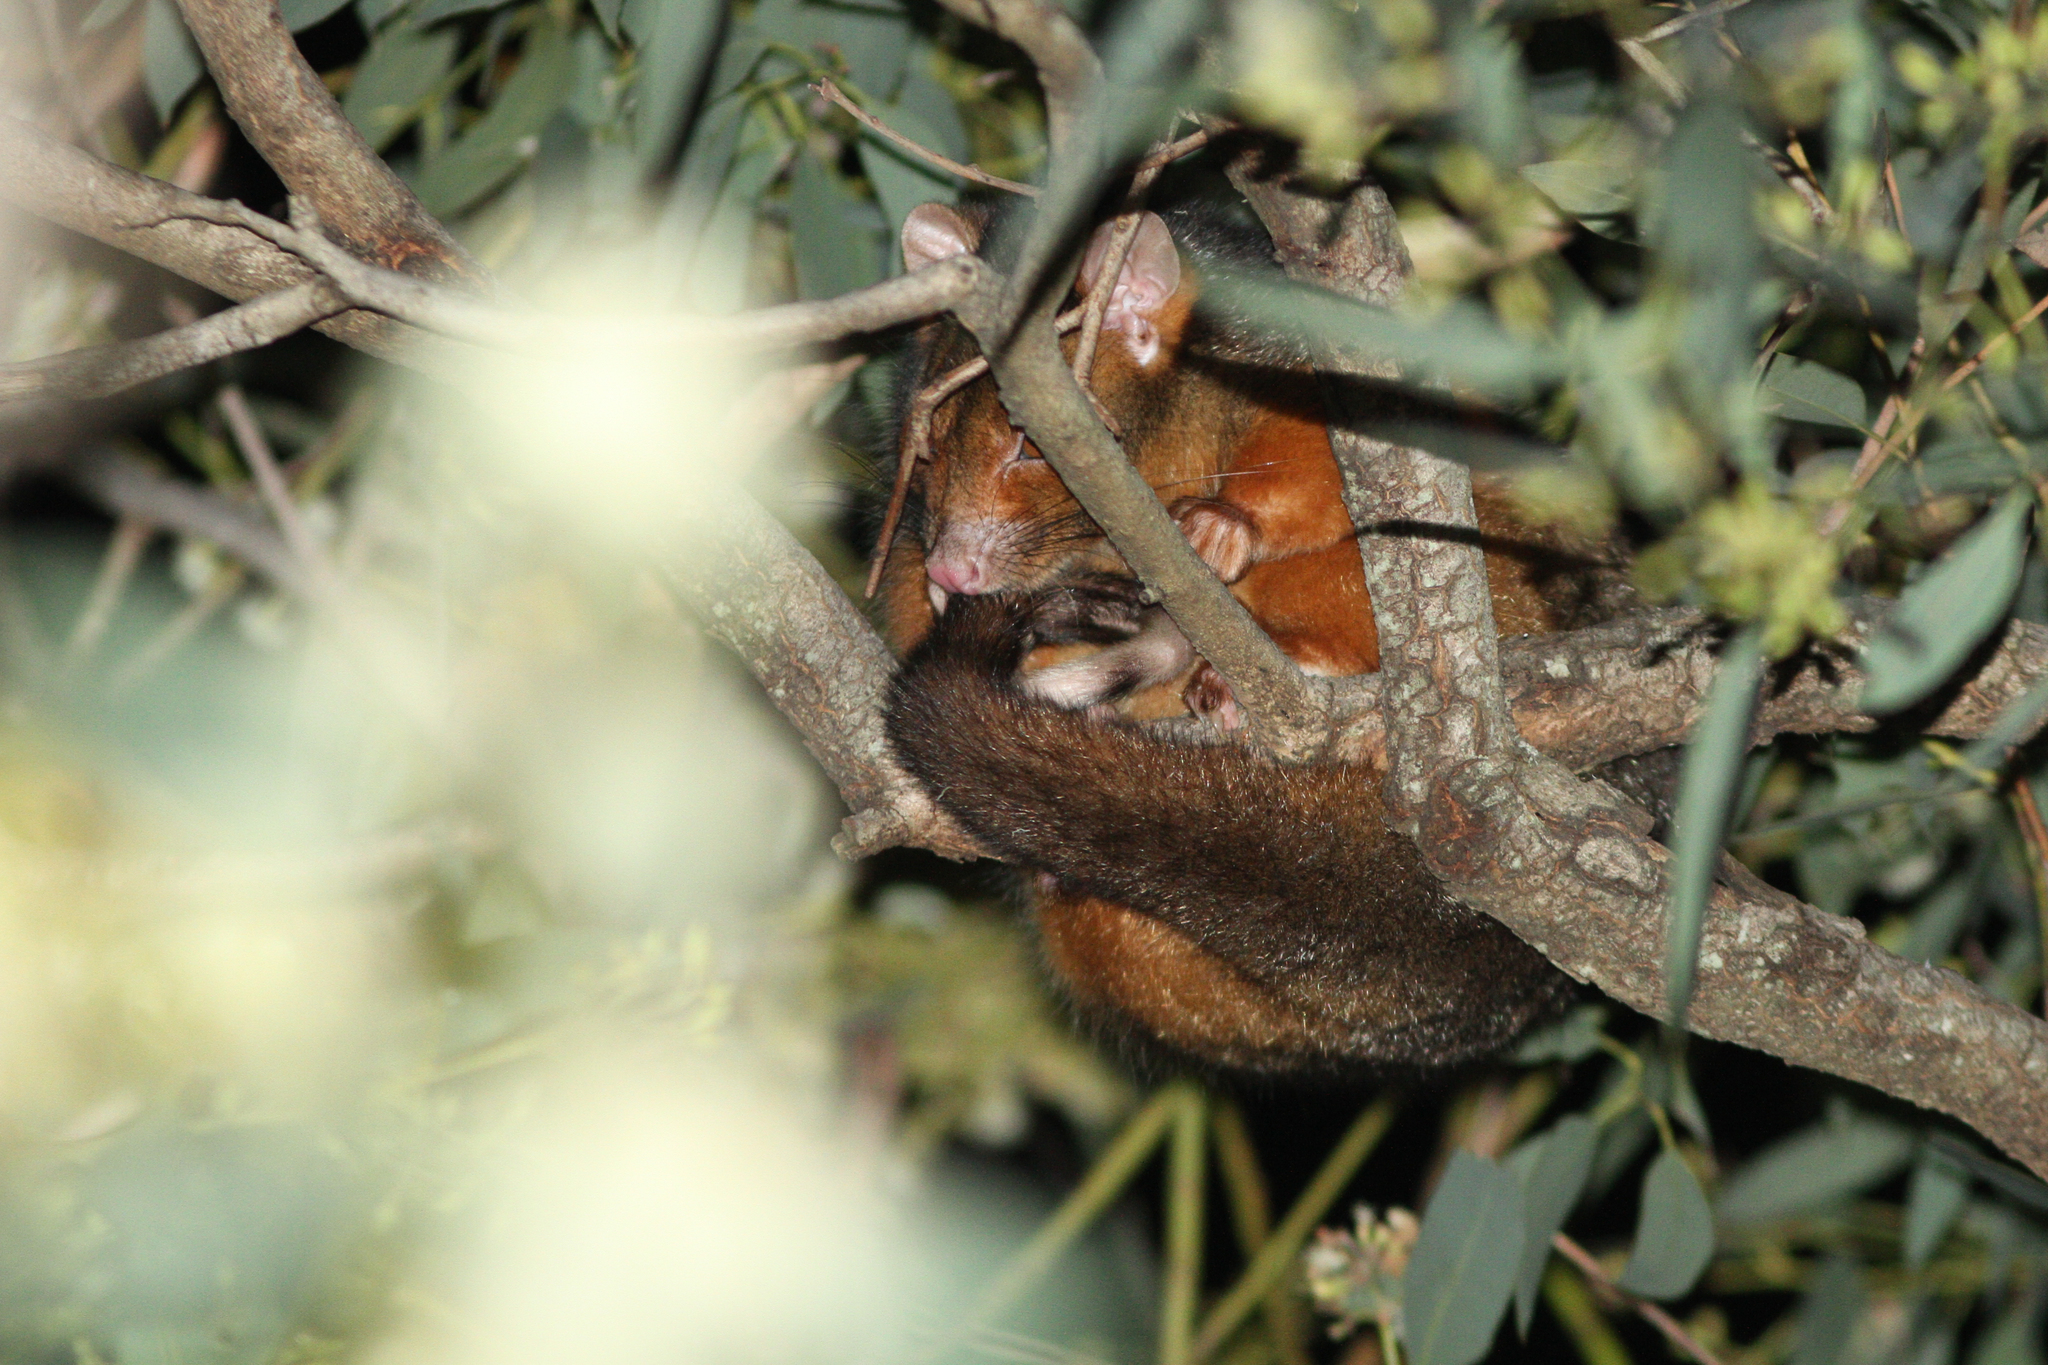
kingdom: Animalia
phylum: Chordata
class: Mammalia
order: Diprotodontia
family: Pseudocheiridae
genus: Pseudocheirus
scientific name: Pseudocheirus peregrinus
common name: Common ringtail possum
